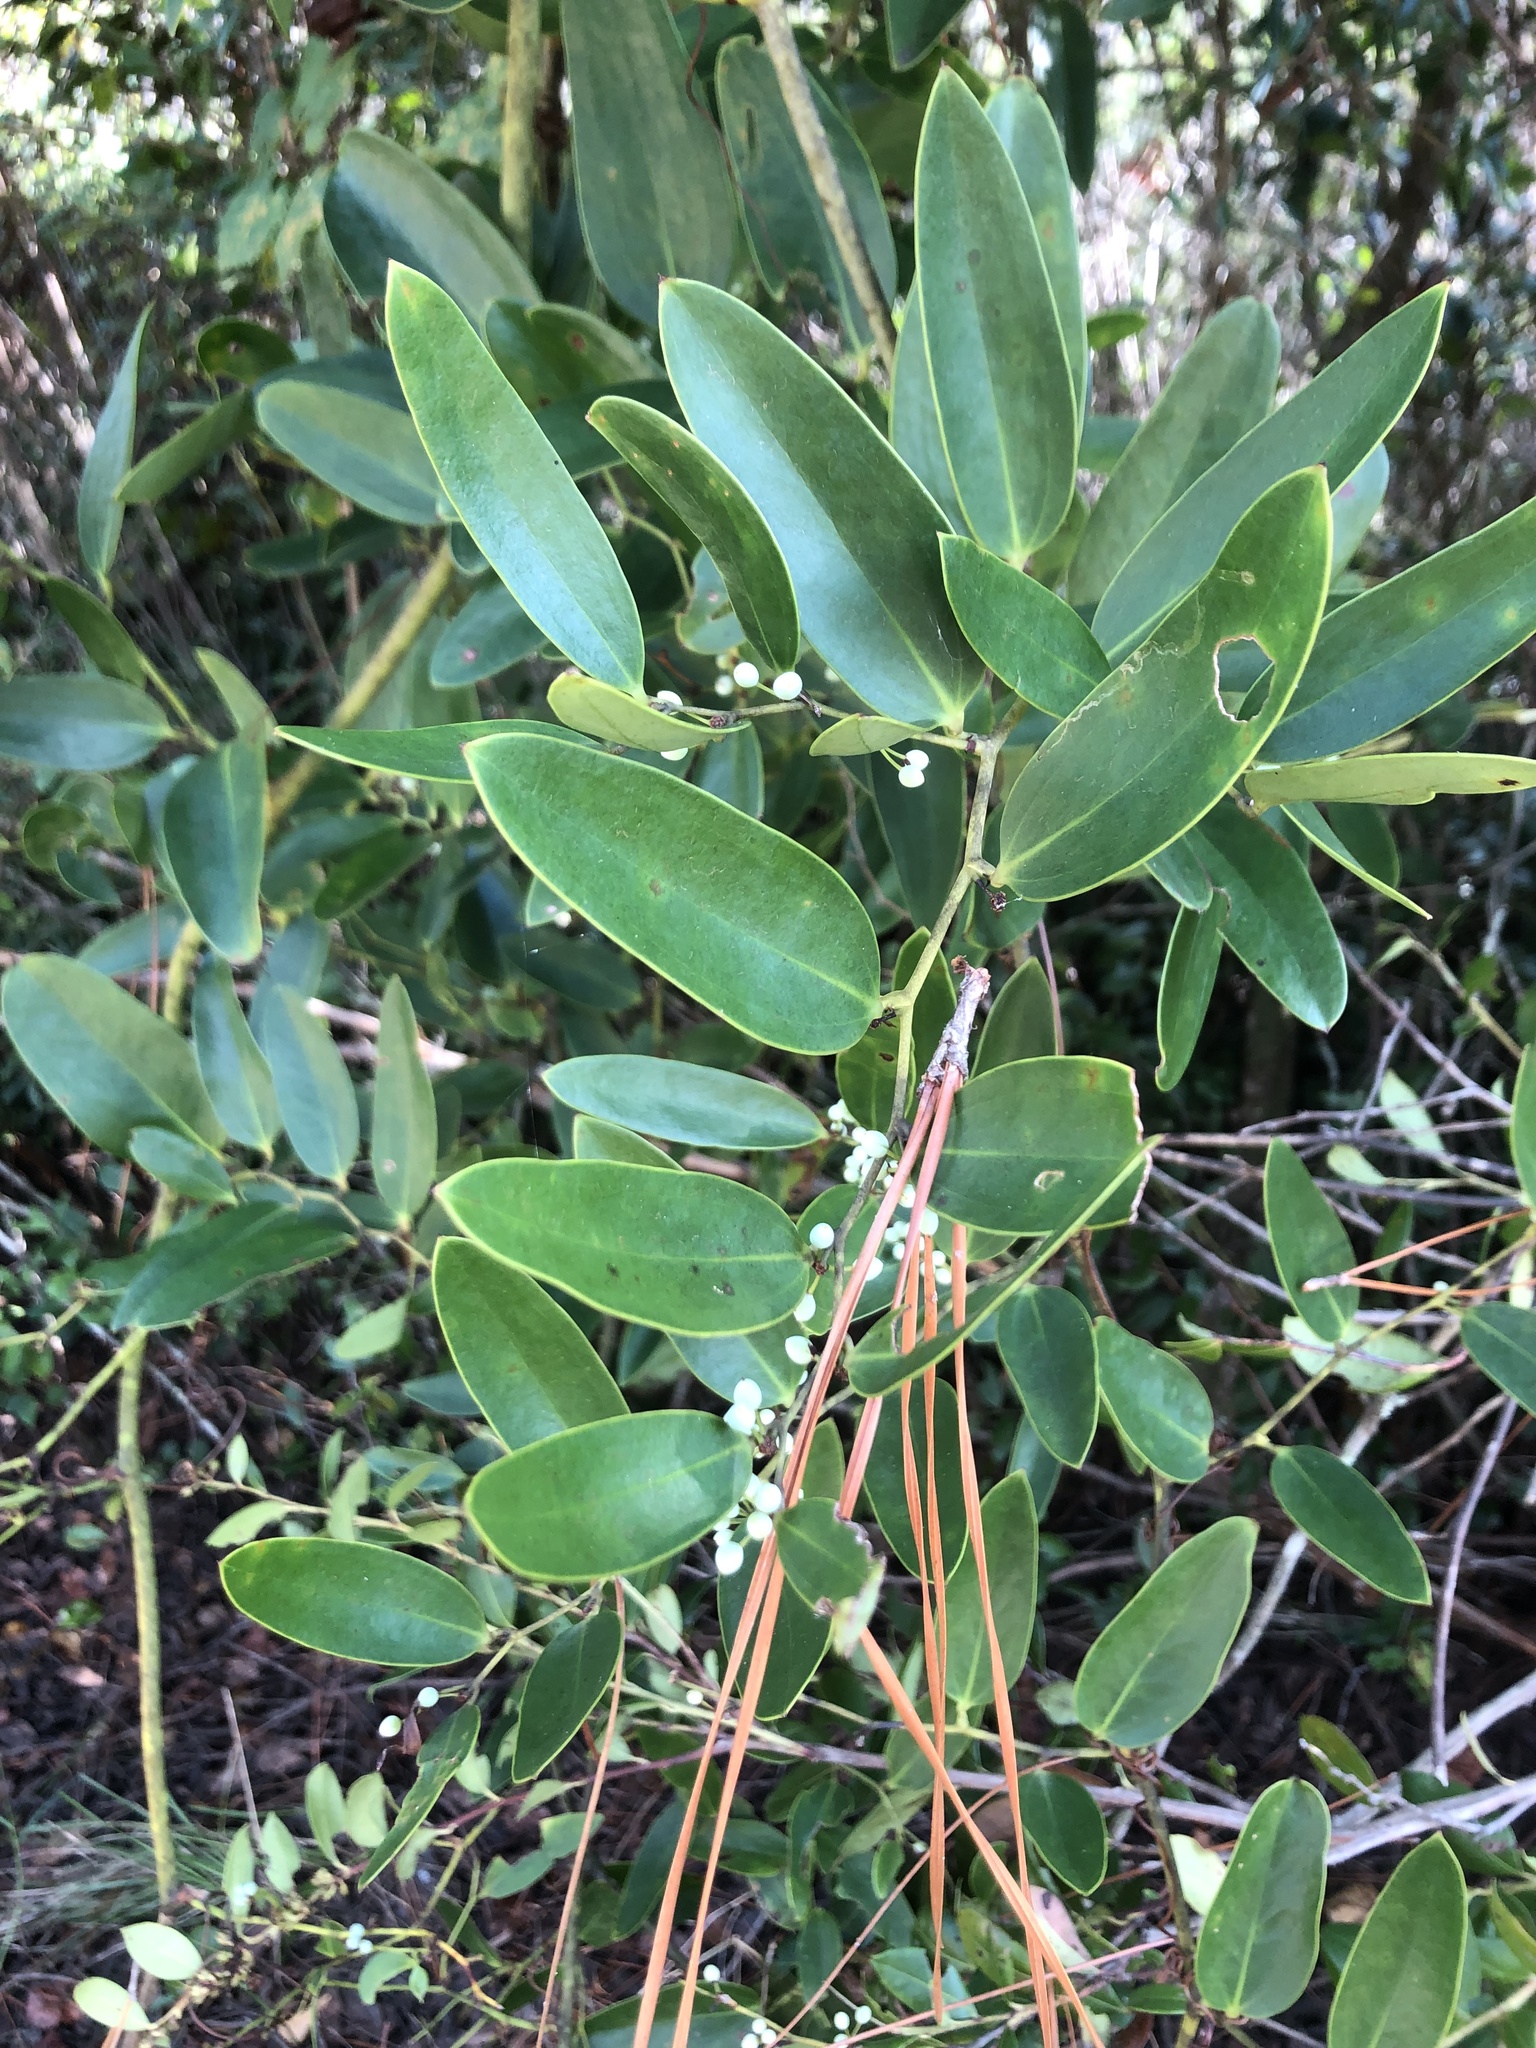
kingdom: Plantae
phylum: Tracheophyta
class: Liliopsida
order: Liliales
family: Smilacaceae
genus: Smilax
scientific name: Smilax laurifolia
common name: Bamboovine
